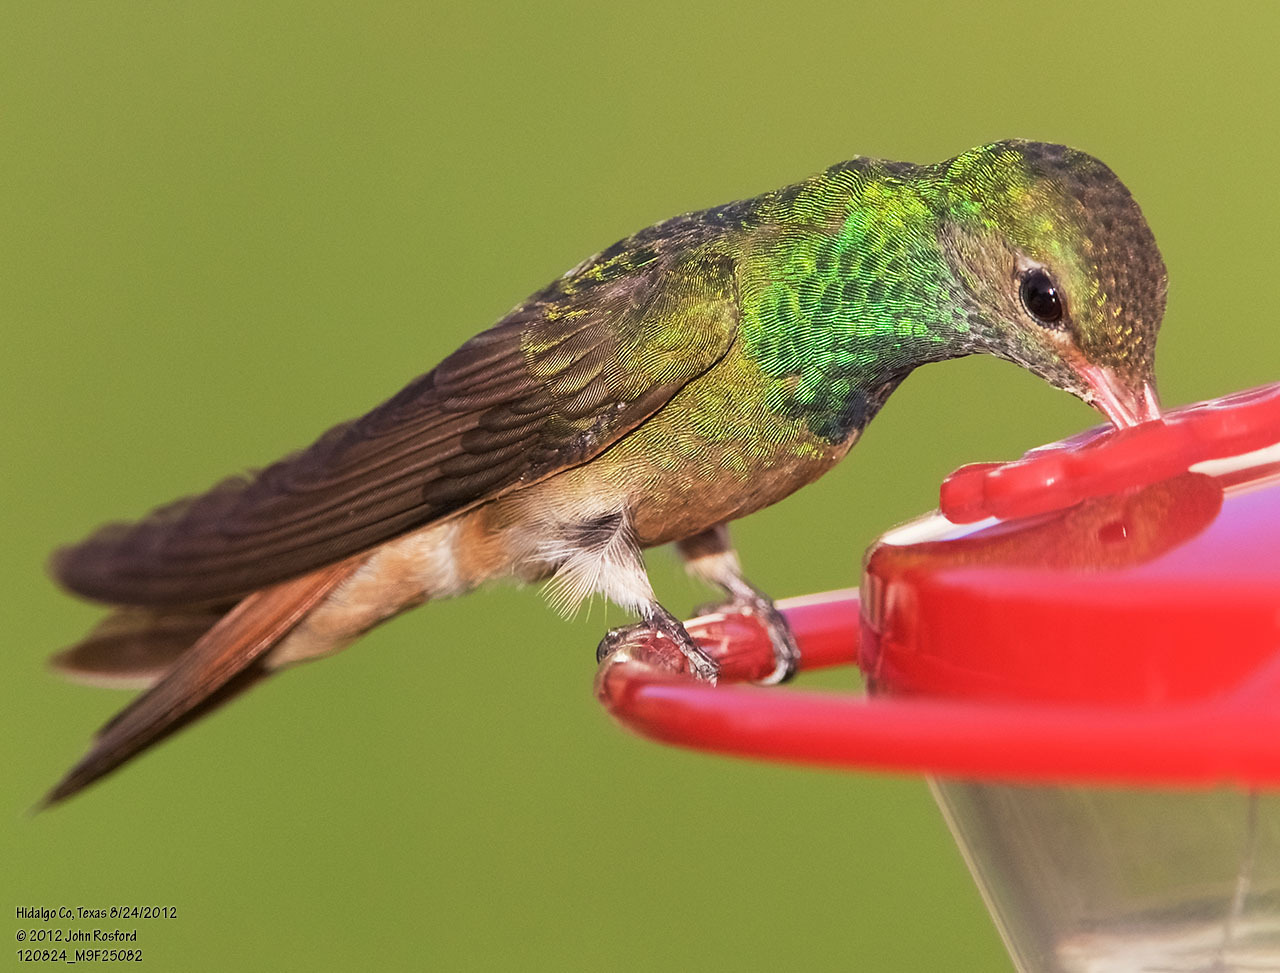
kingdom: Animalia
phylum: Chordata
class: Aves
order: Apodiformes
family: Trochilidae
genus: Amazilia
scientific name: Amazilia yucatanensis
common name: Buff-bellied hummingbird
